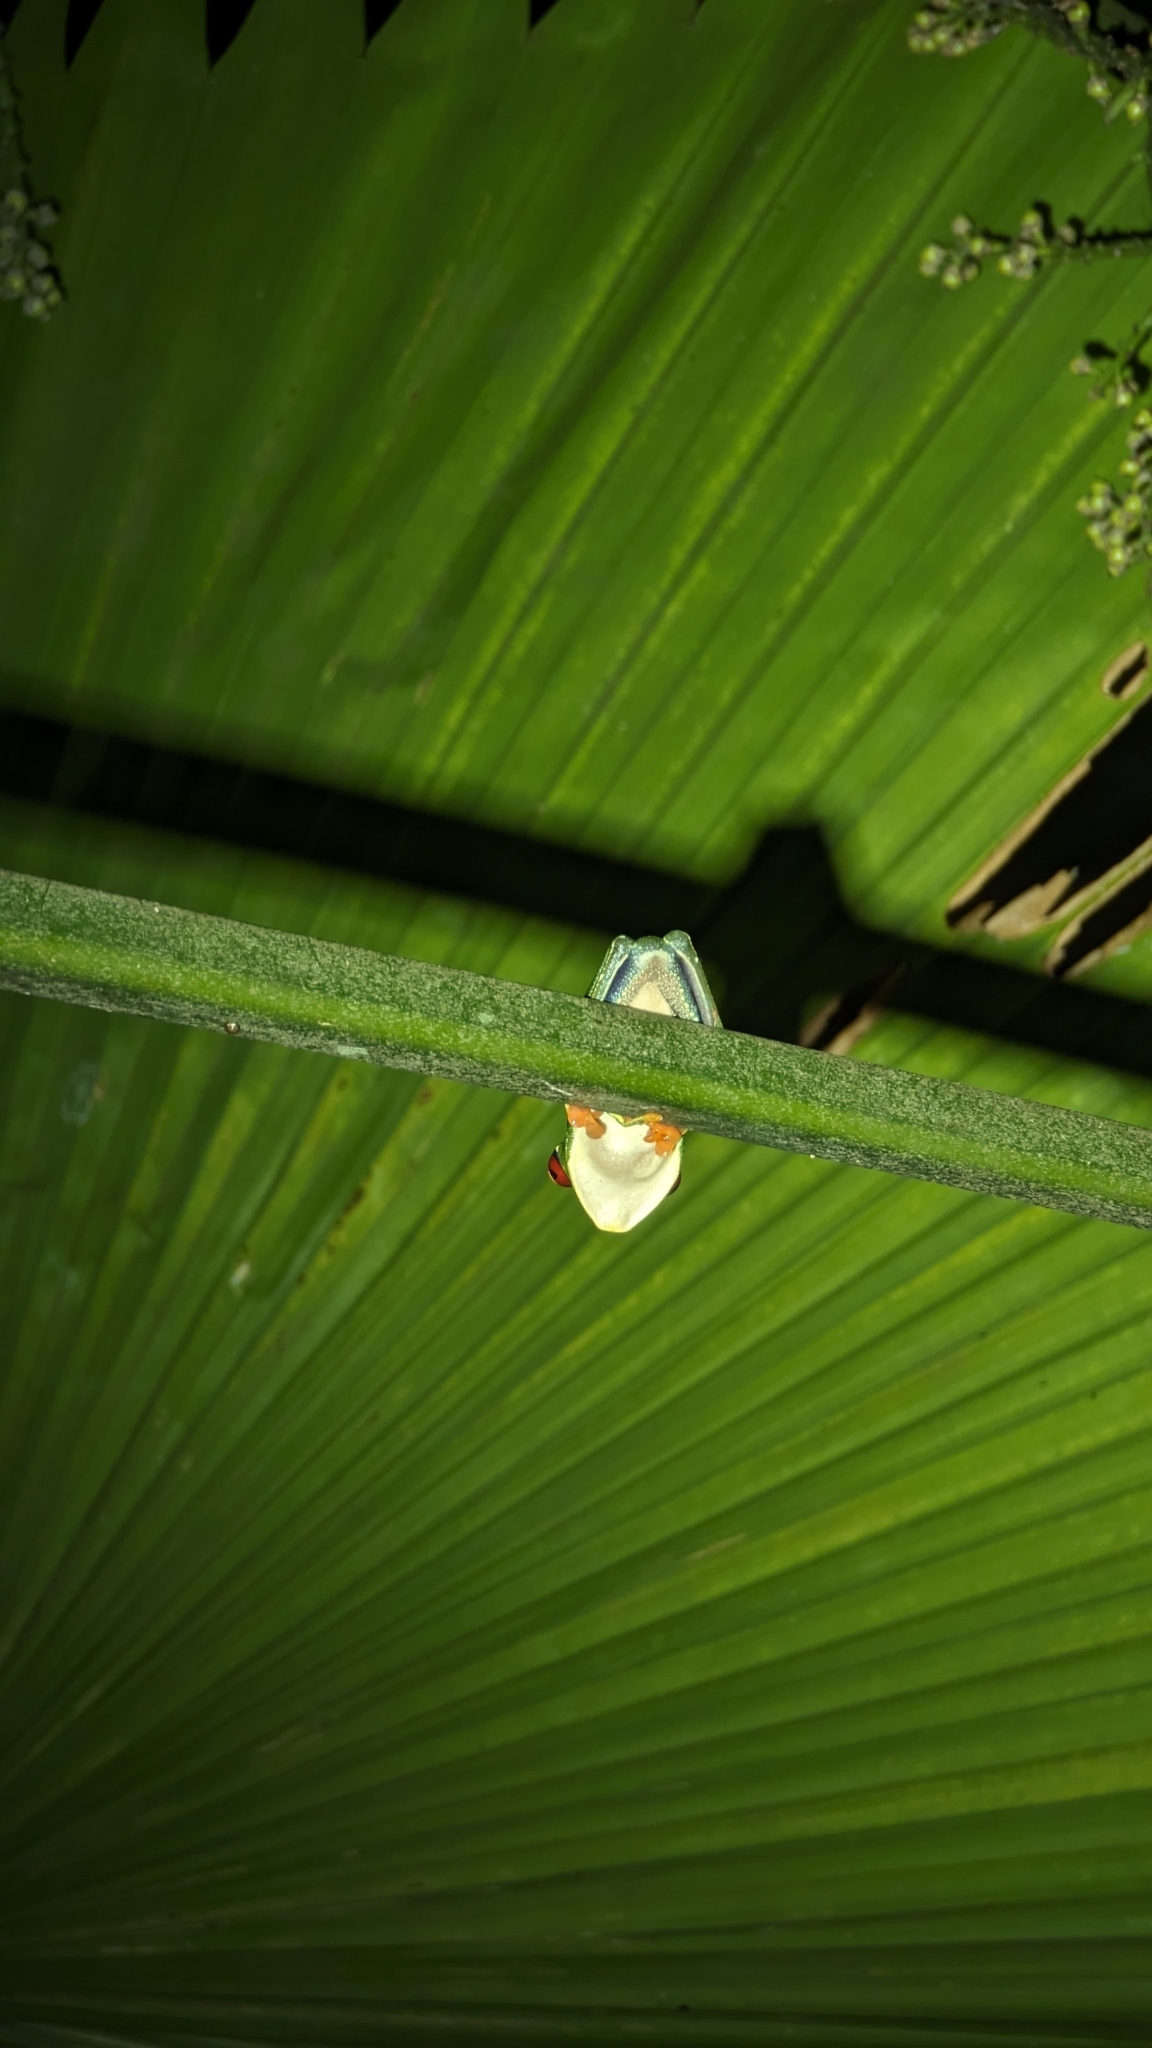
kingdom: Animalia
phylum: Chordata
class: Amphibia
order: Anura
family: Phyllomedusidae
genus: Agalychnis
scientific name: Agalychnis callidryas
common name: Red-eyed treefrog
